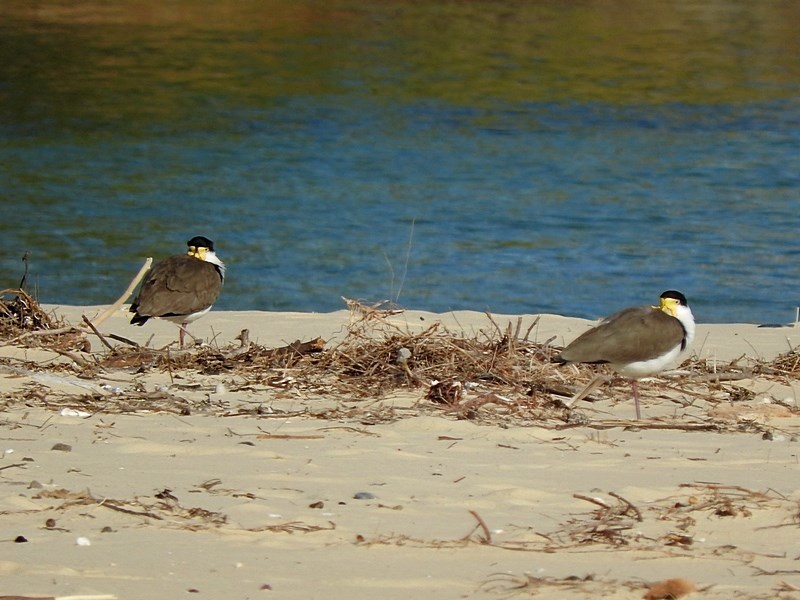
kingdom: Animalia
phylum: Chordata
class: Aves
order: Charadriiformes
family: Charadriidae
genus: Vanellus
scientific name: Vanellus miles
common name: Masked lapwing
